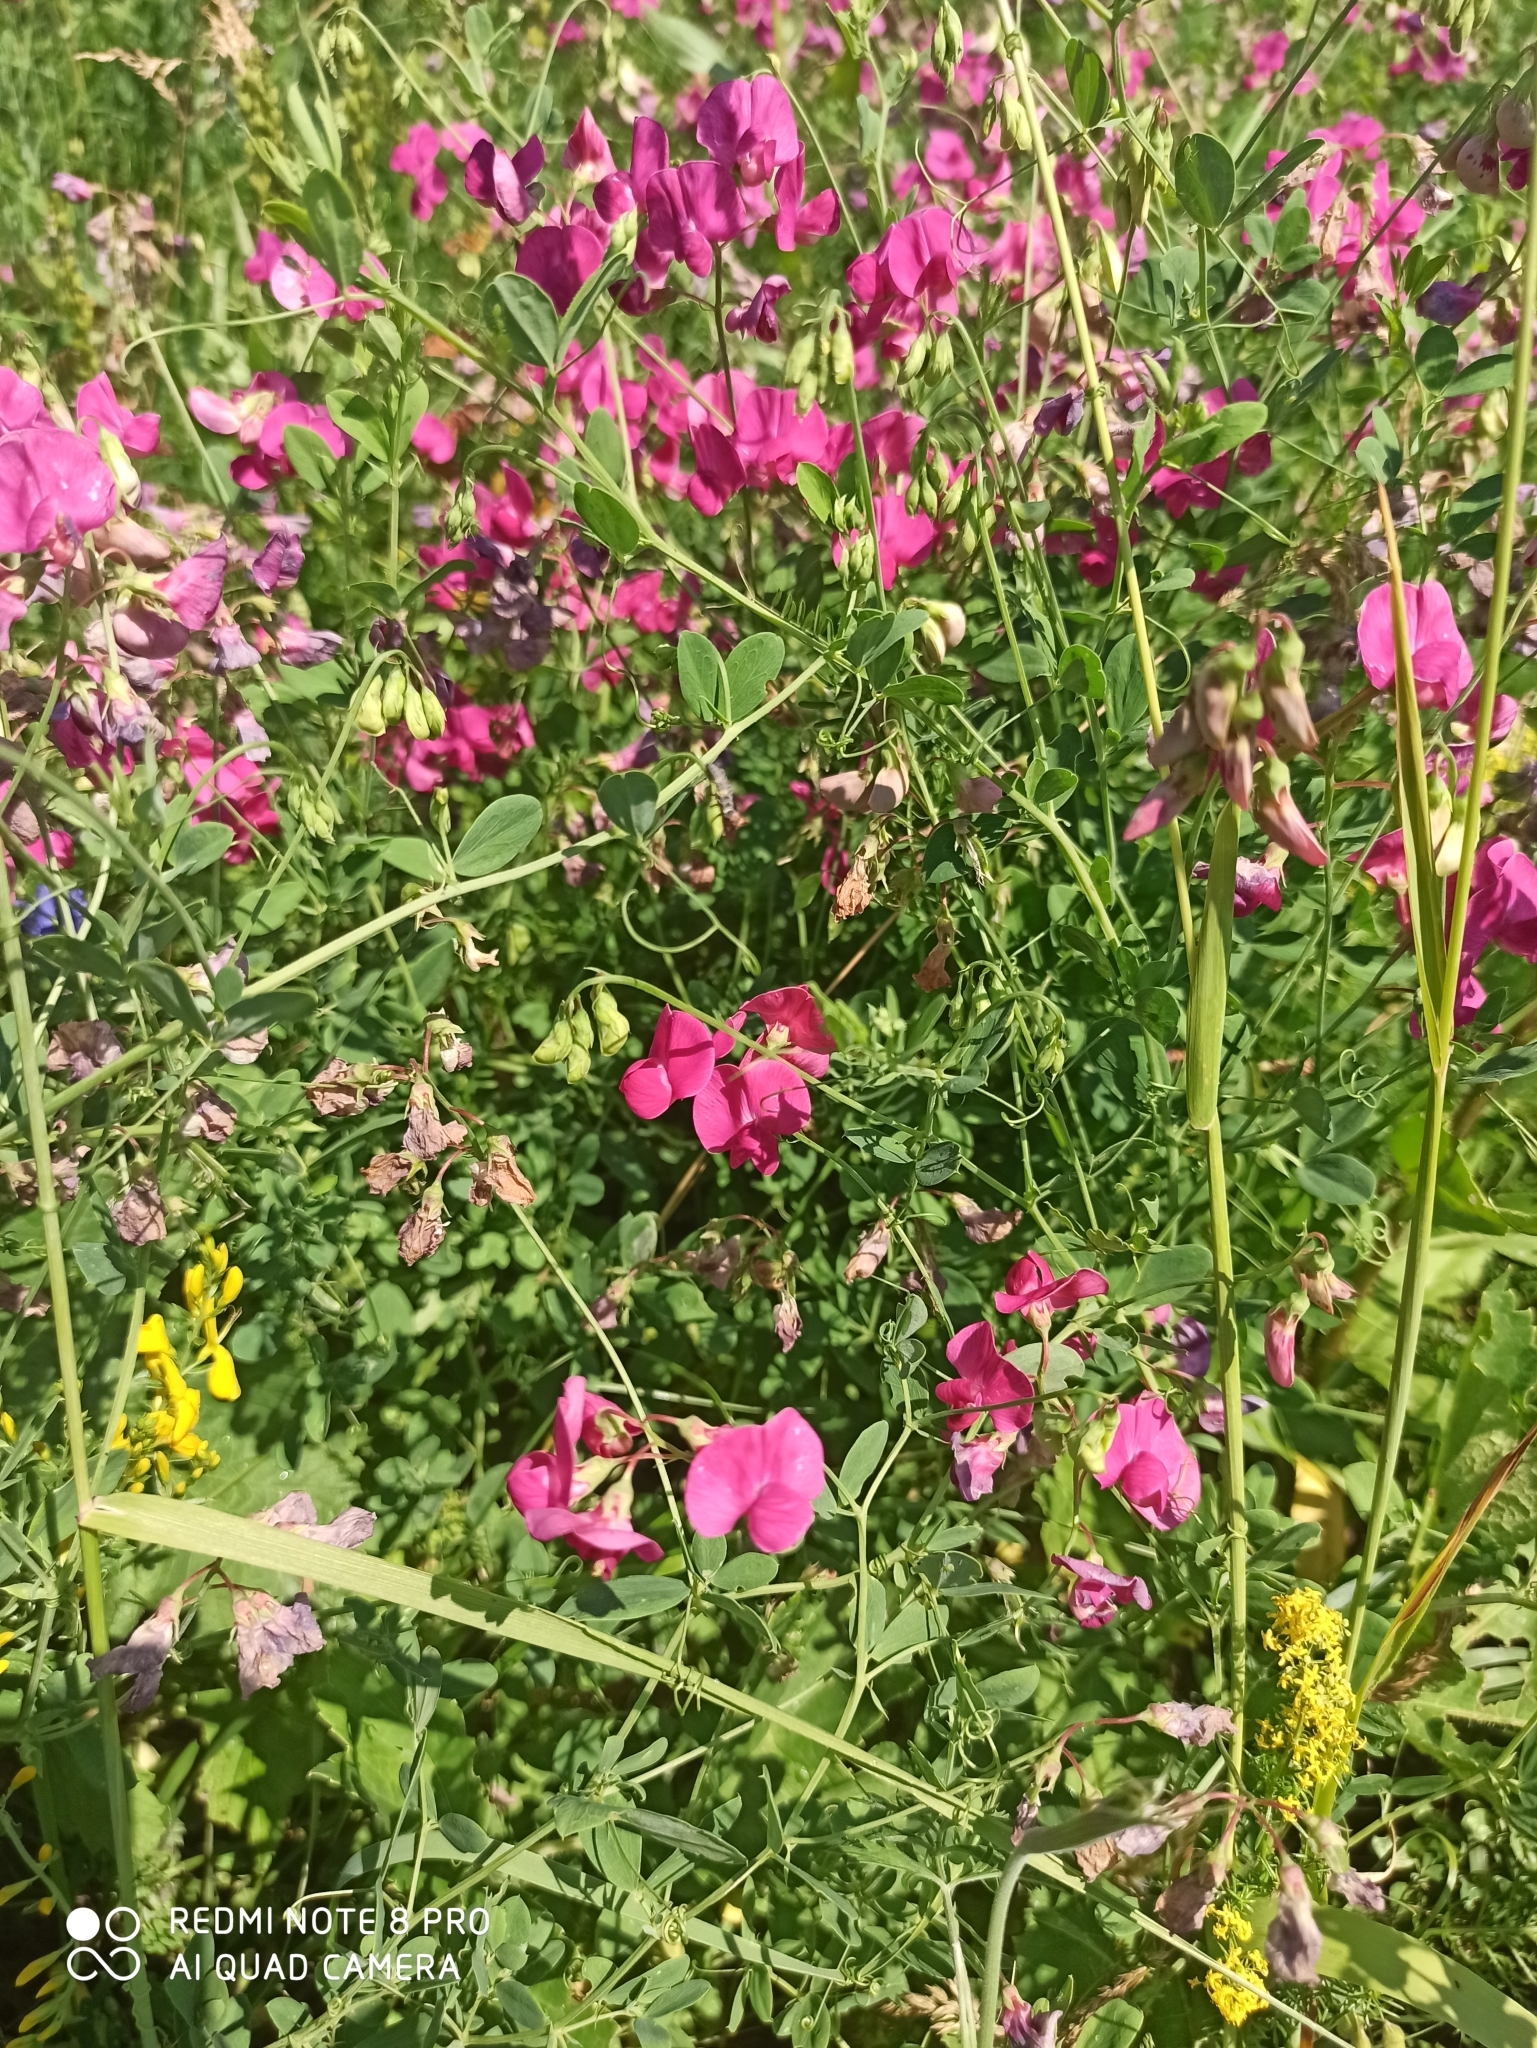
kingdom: Plantae
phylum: Tracheophyta
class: Magnoliopsida
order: Fabales
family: Fabaceae
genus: Lathyrus
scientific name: Lathyrus tuberosus
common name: Tuberous pea
